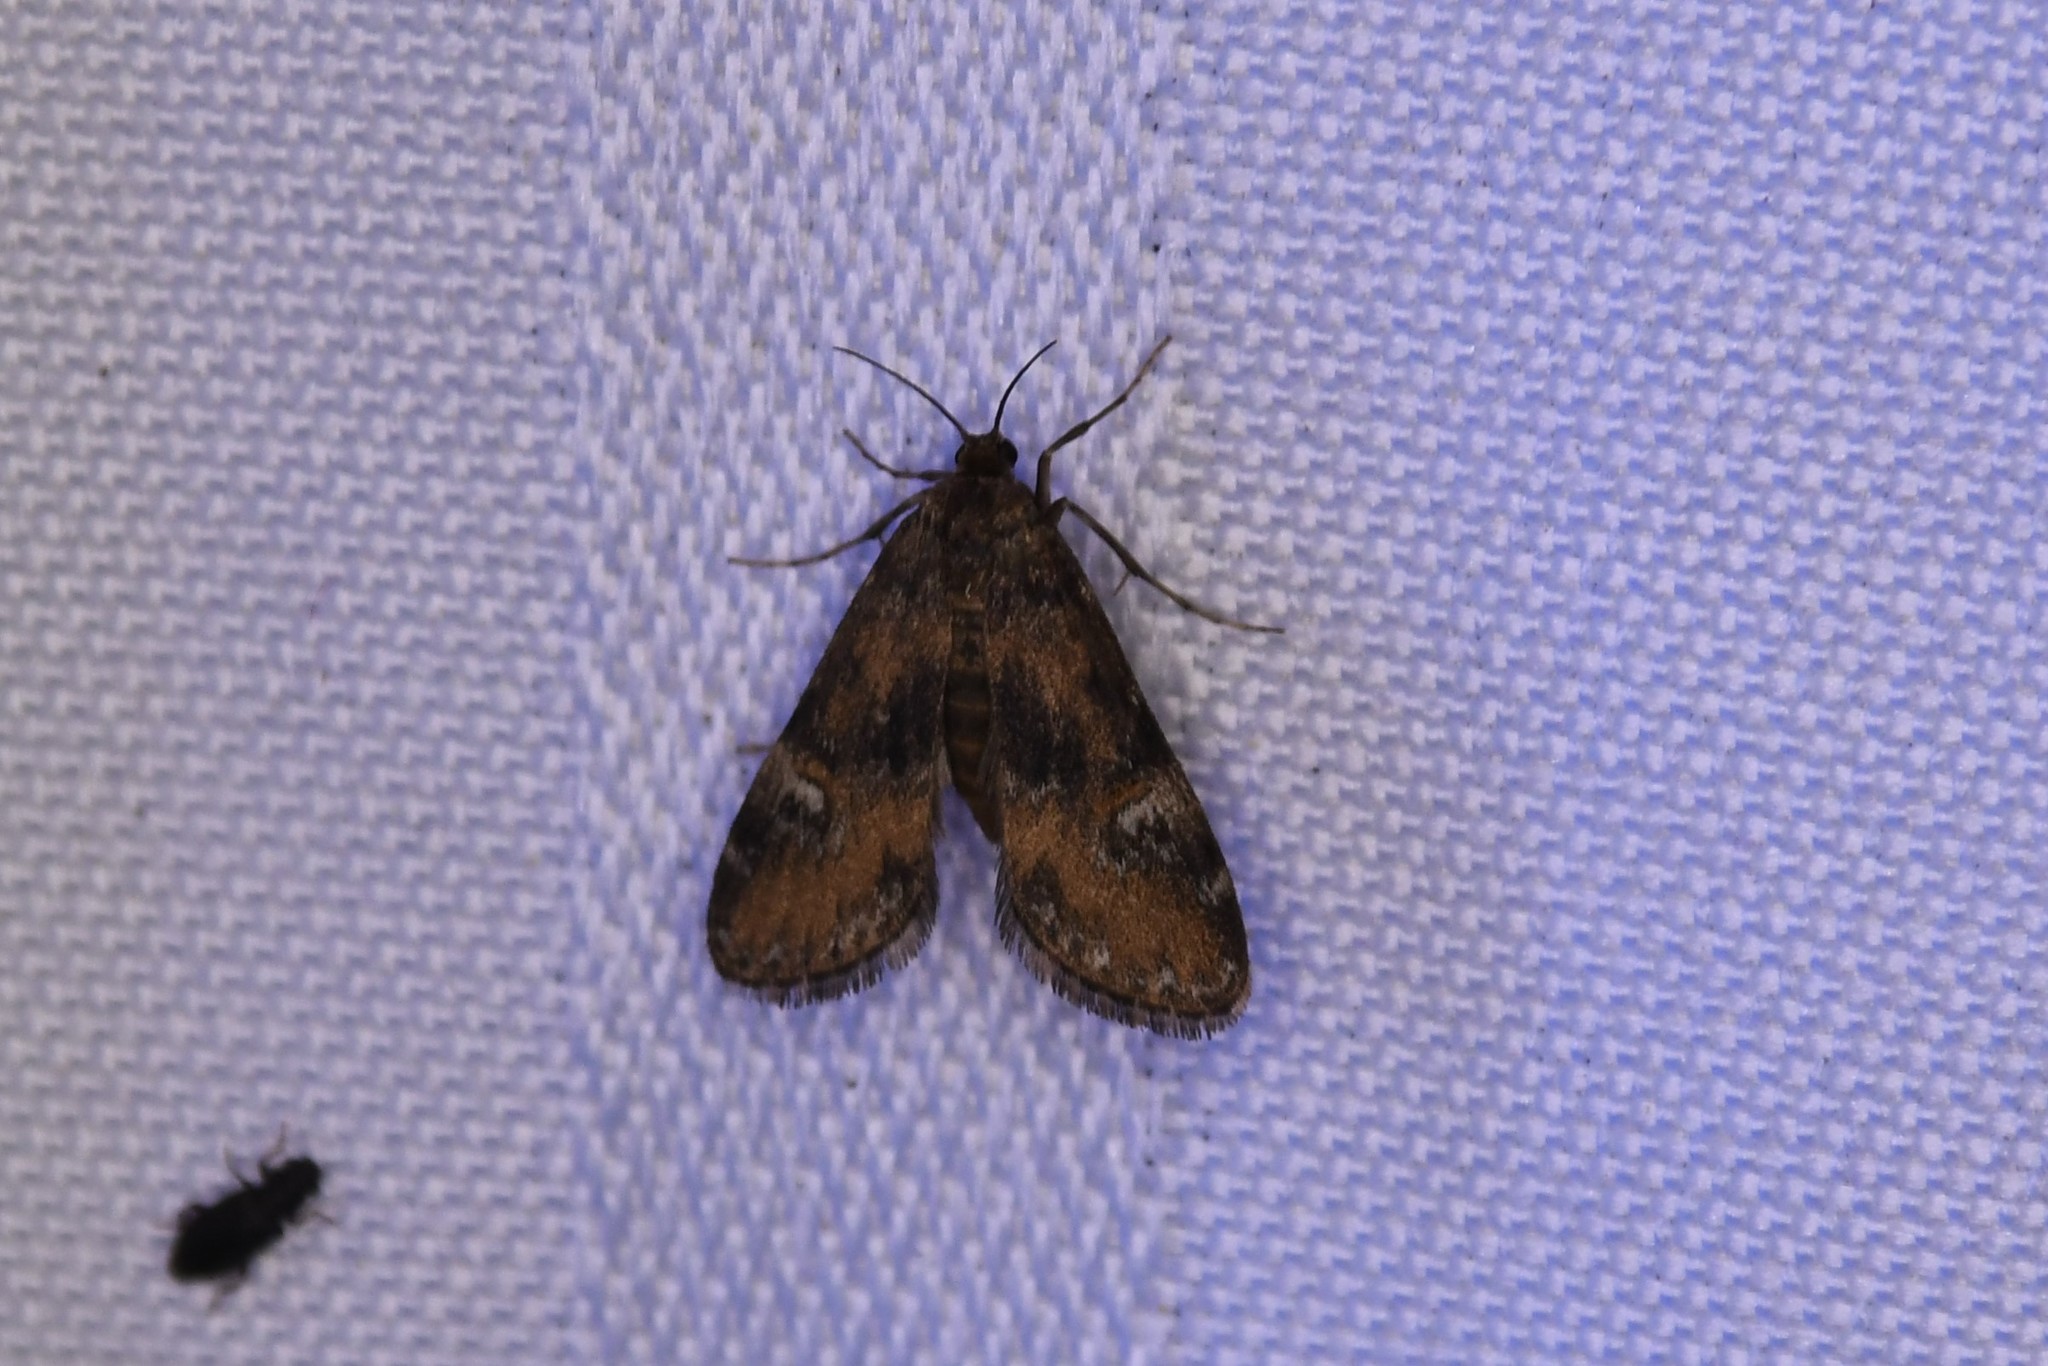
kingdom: Animalia
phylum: Arthropoda
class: Insecta
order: Lepidoptera
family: Crambidae
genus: Elophila
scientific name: Elophila obliteralis
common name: Waterlily leafcutter moth
